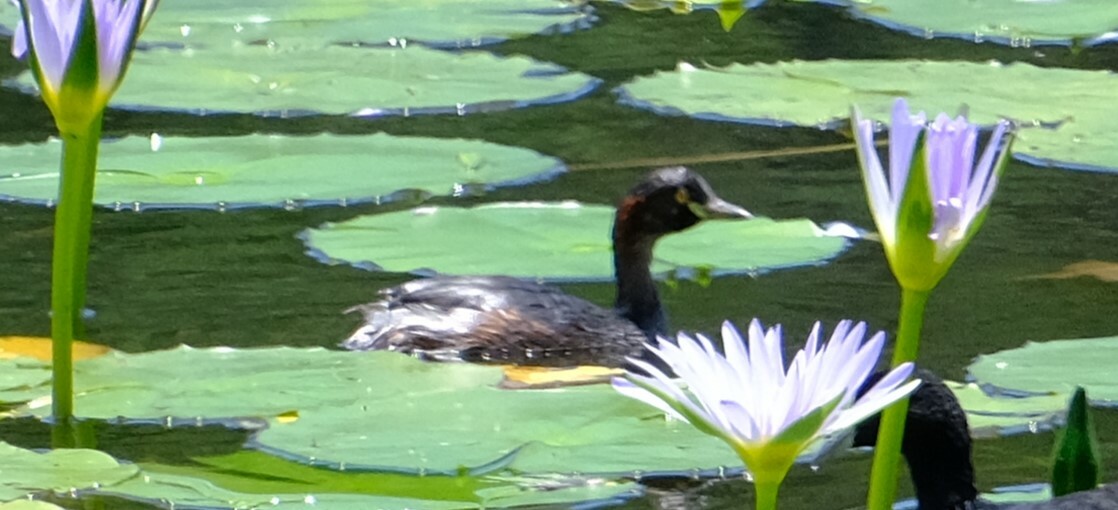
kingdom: Animalia
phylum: Chordata
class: Aves
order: Podicipediformes
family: Podicipedidae
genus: Tachybaptus
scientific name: Tachybaptus novaehollandiae
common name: Australasian grebe
